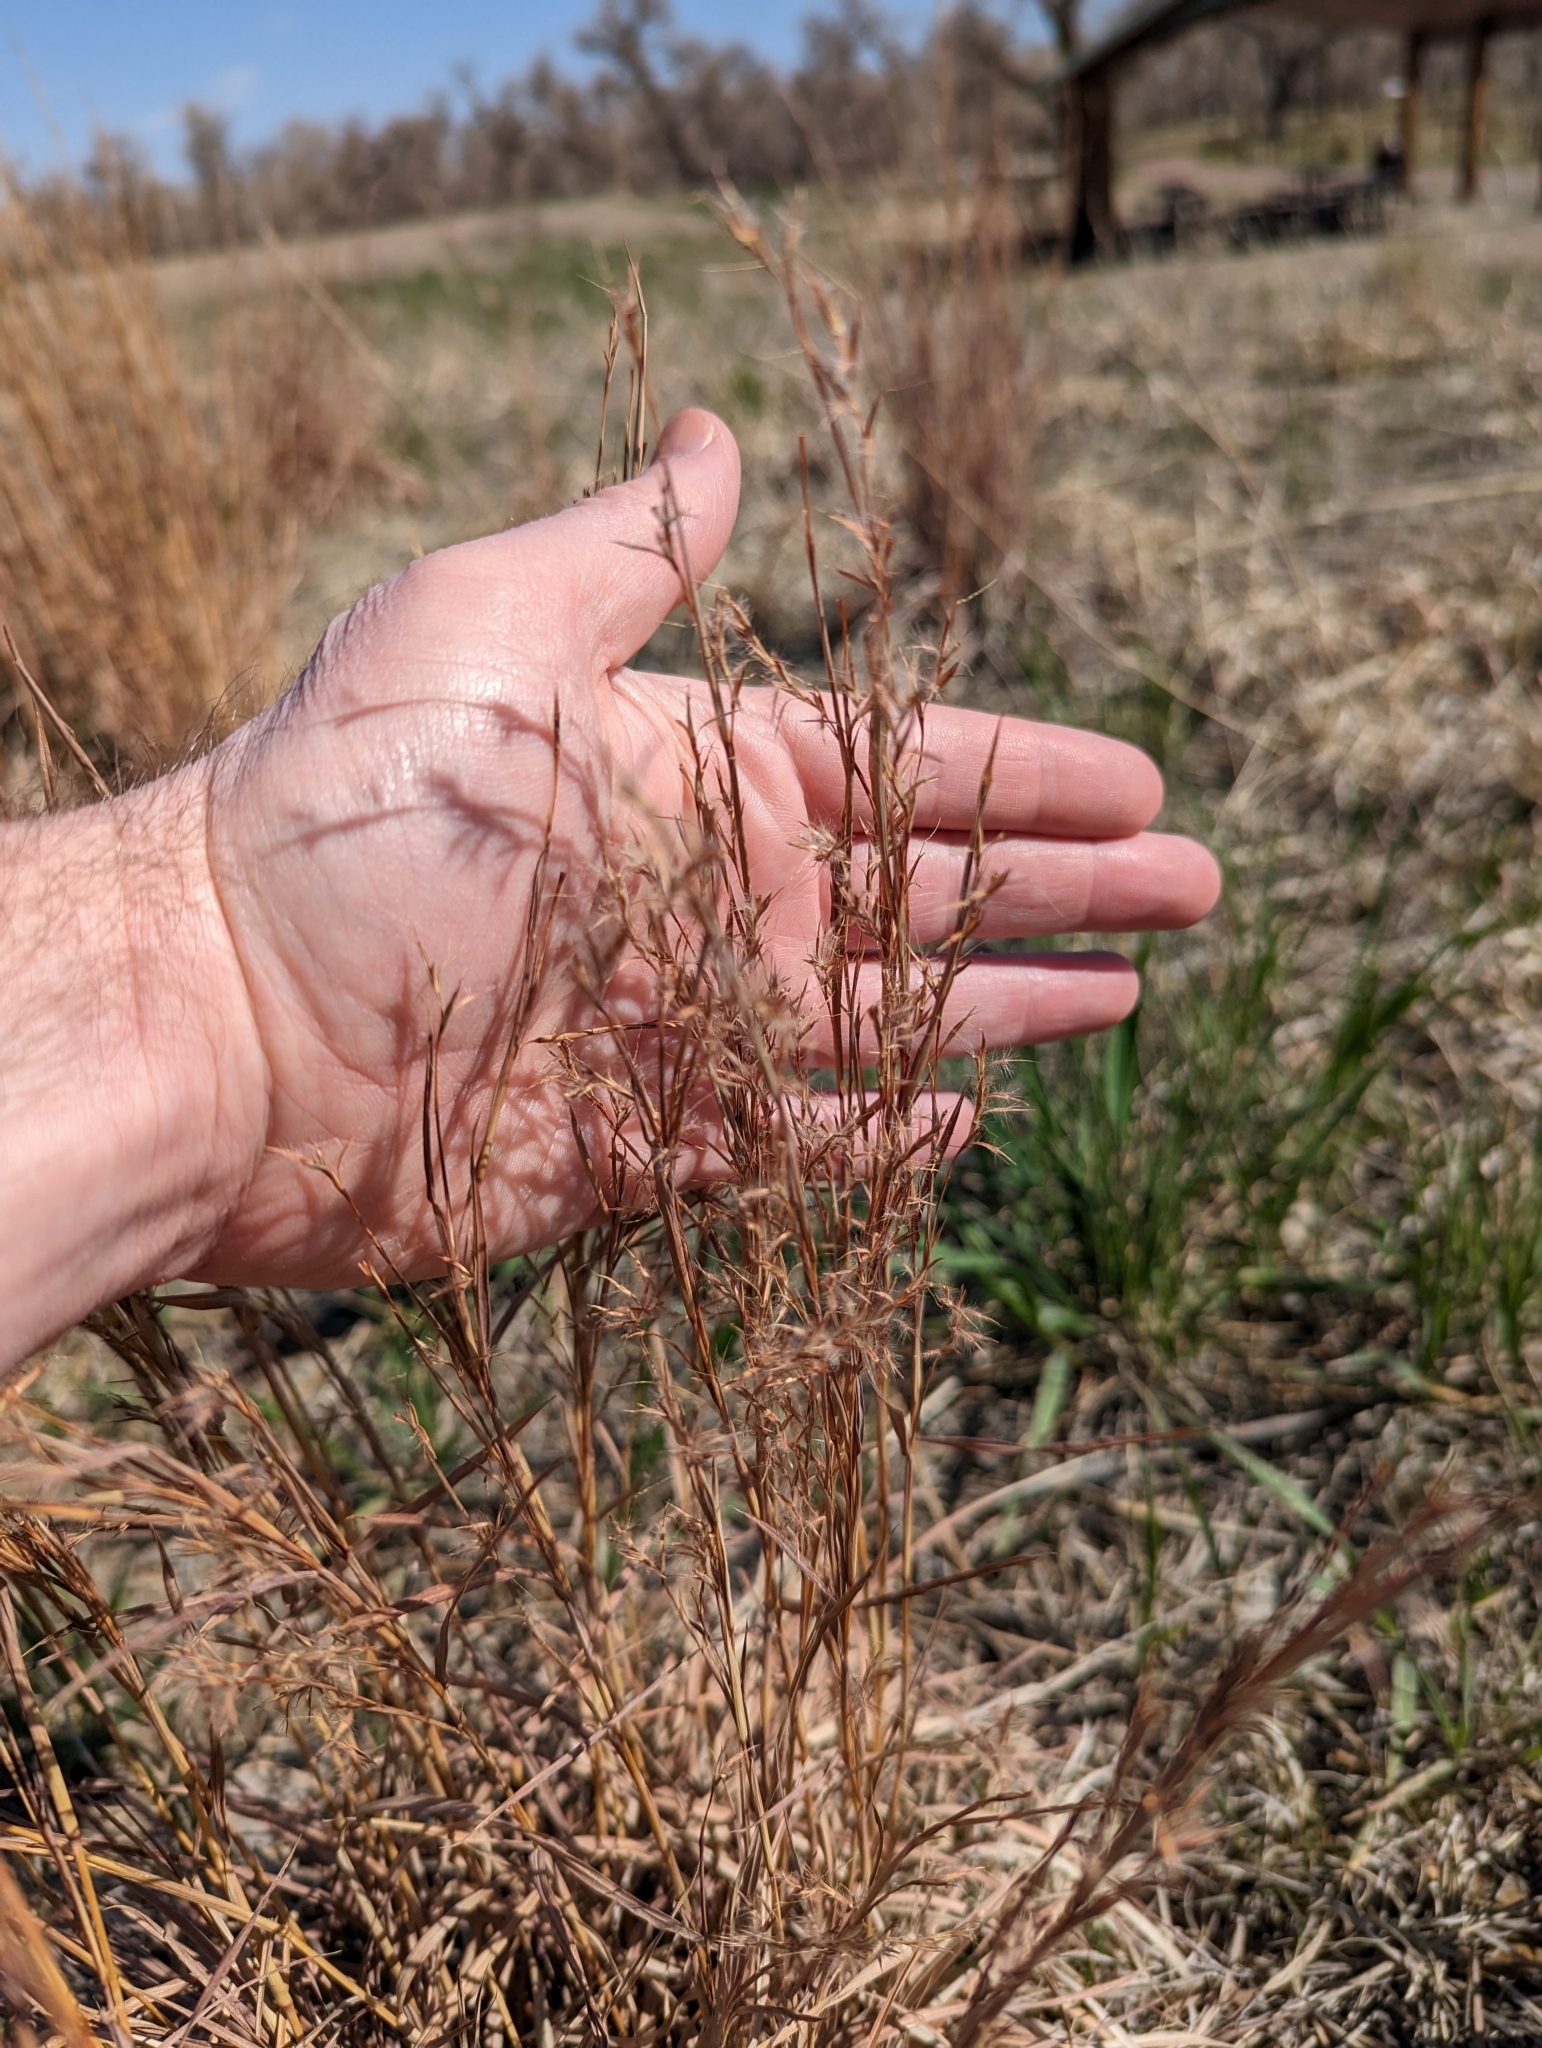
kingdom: Plantae
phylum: Tracheophyta
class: Liliopsida
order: Poales
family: Poaceae
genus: Schizachyrium
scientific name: Schizachyrium scoparium
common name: Little bluestem
